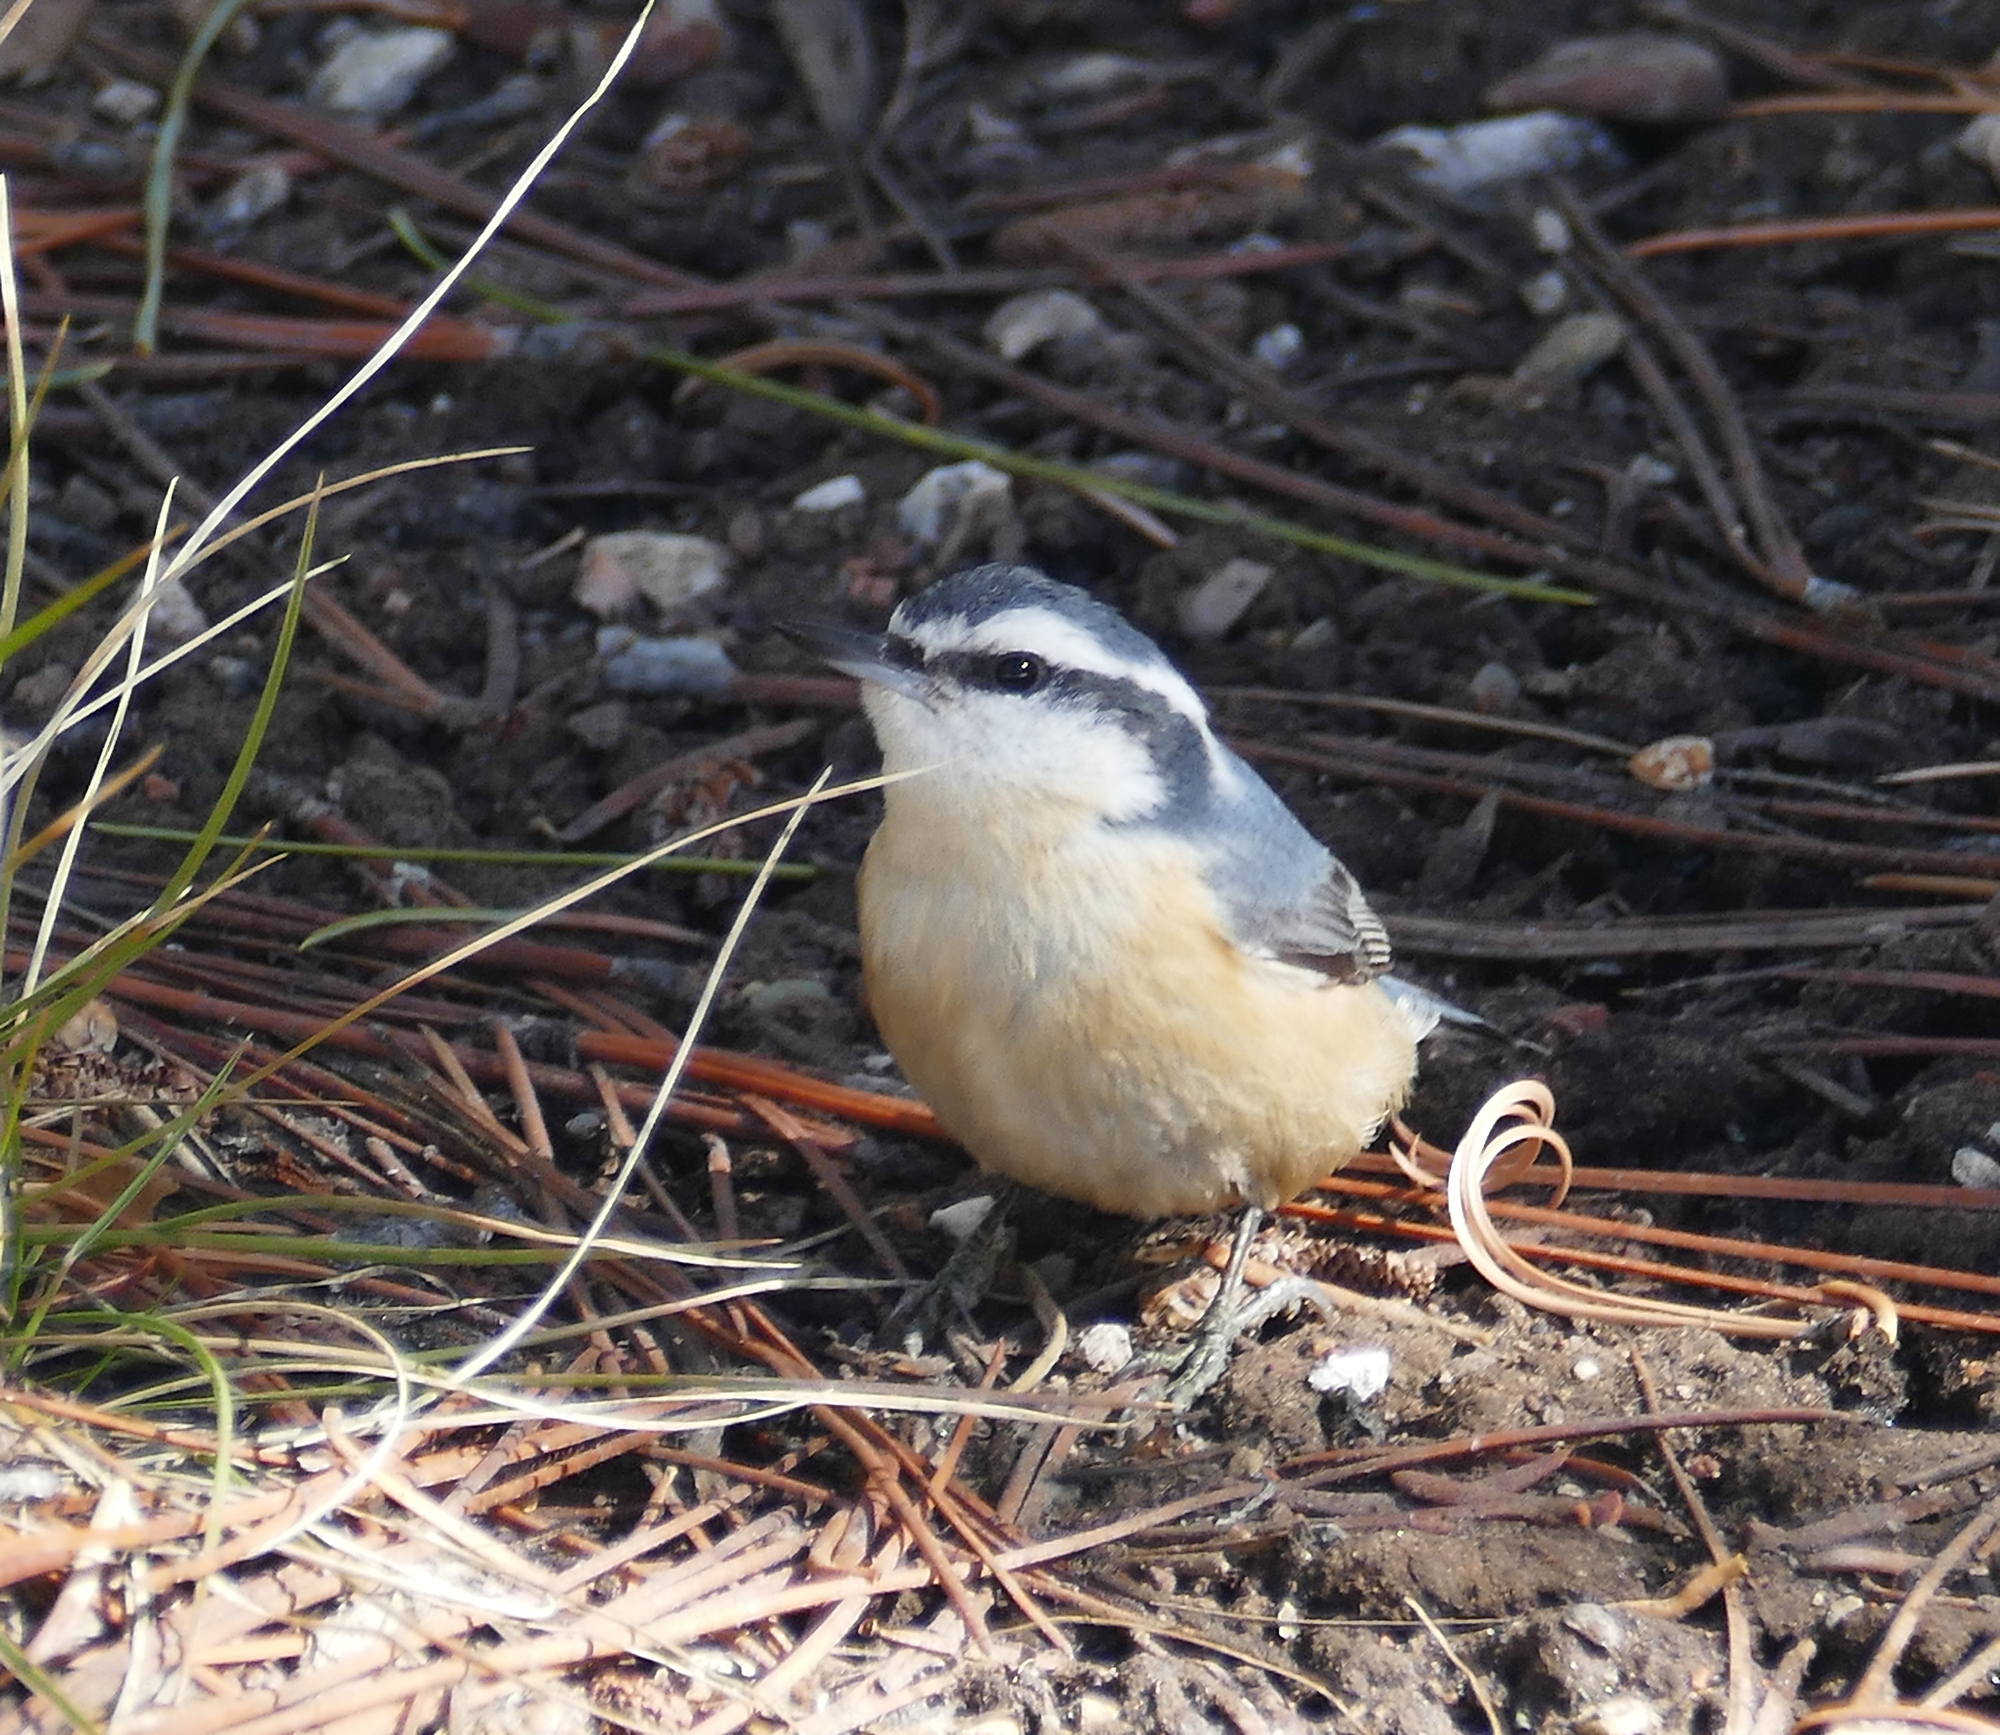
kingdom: Animalia
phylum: Chordata
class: Aves
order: Passeriformes
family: Sittidae
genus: Sitta
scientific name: Sitta canadensis
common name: Red-breasted nuthatch
